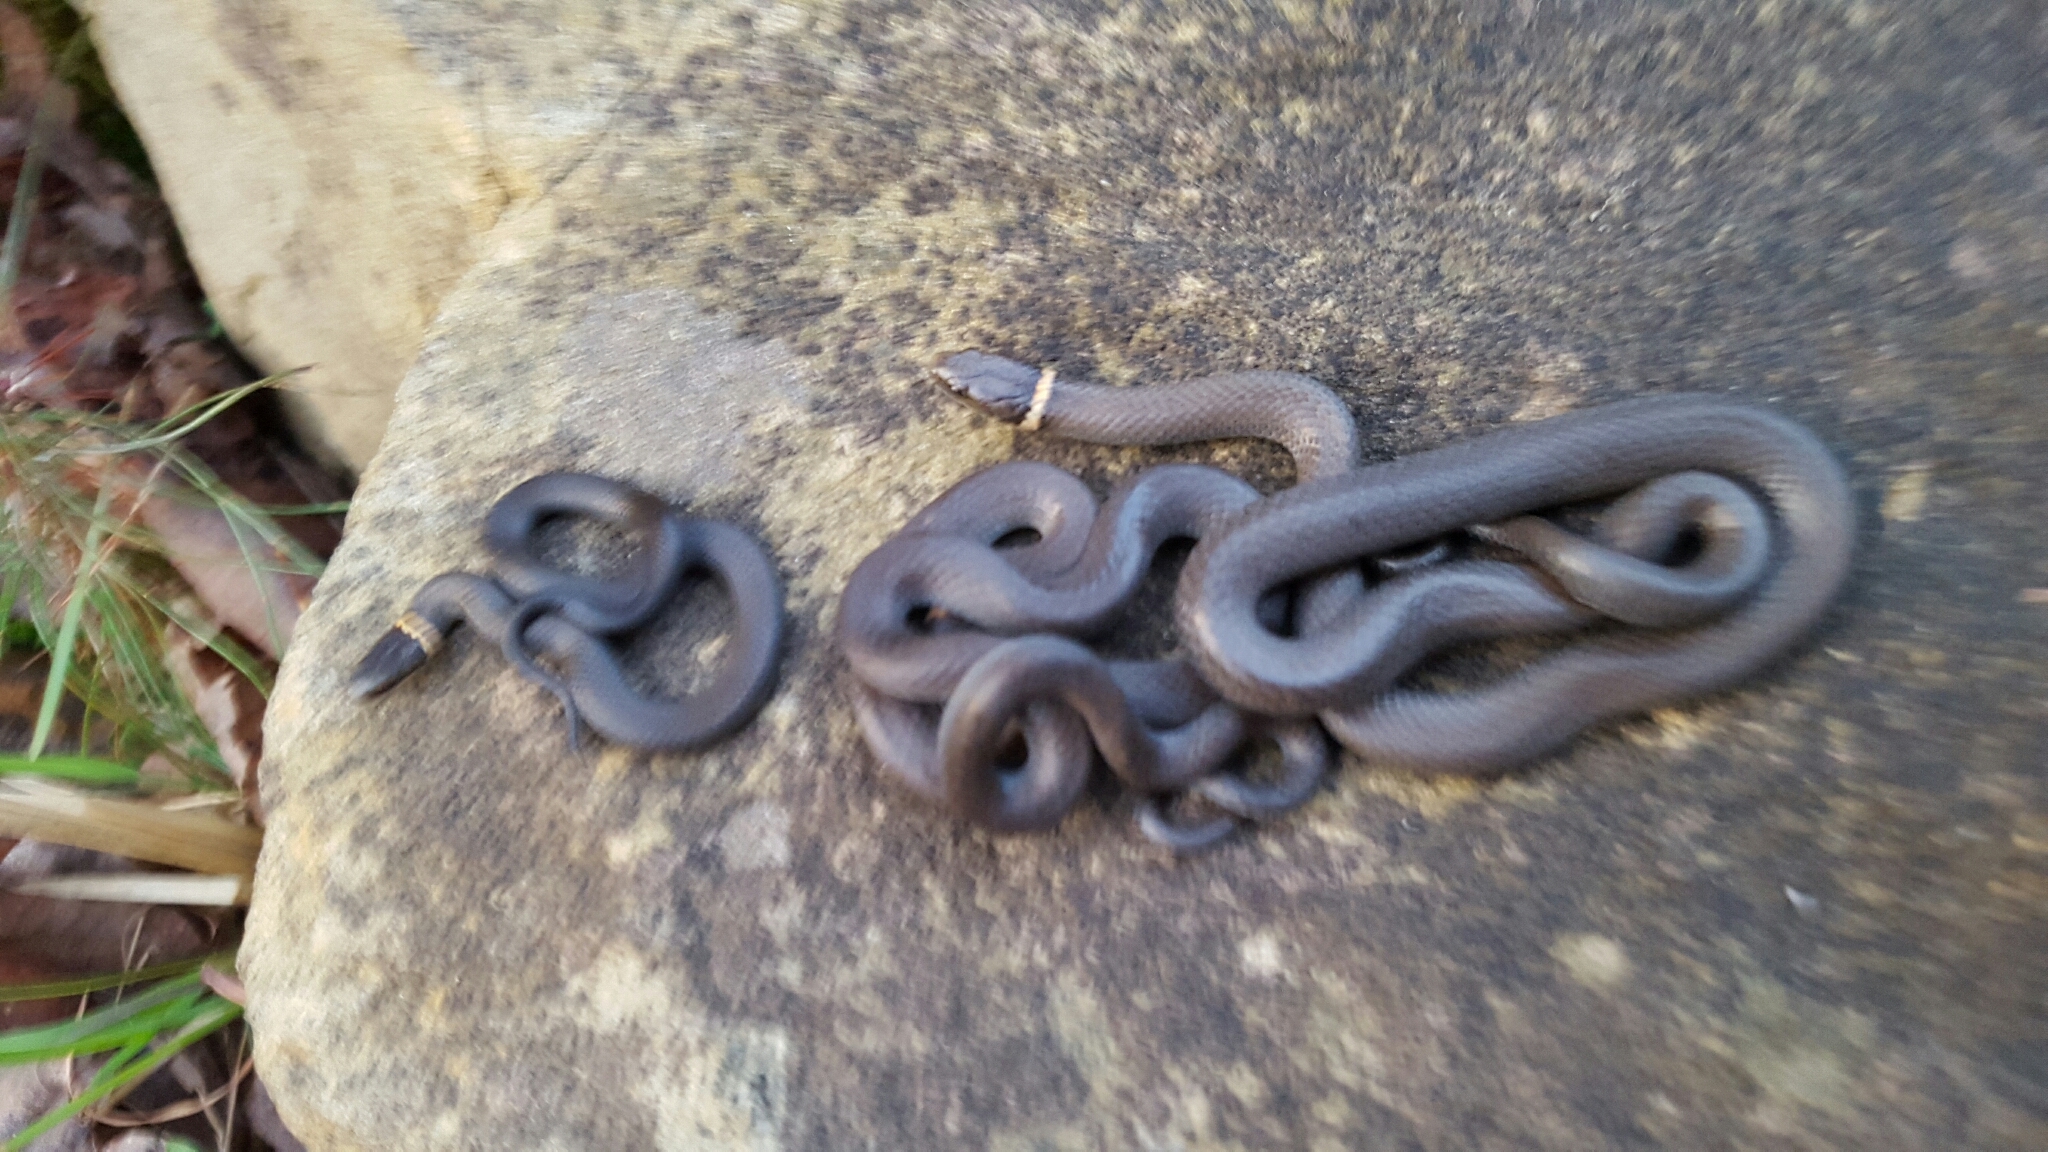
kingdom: Animalia
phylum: Chordata
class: Squamata
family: Colubridae
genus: Diadophis
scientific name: Diadophis punctatus
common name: Ringneck snake
